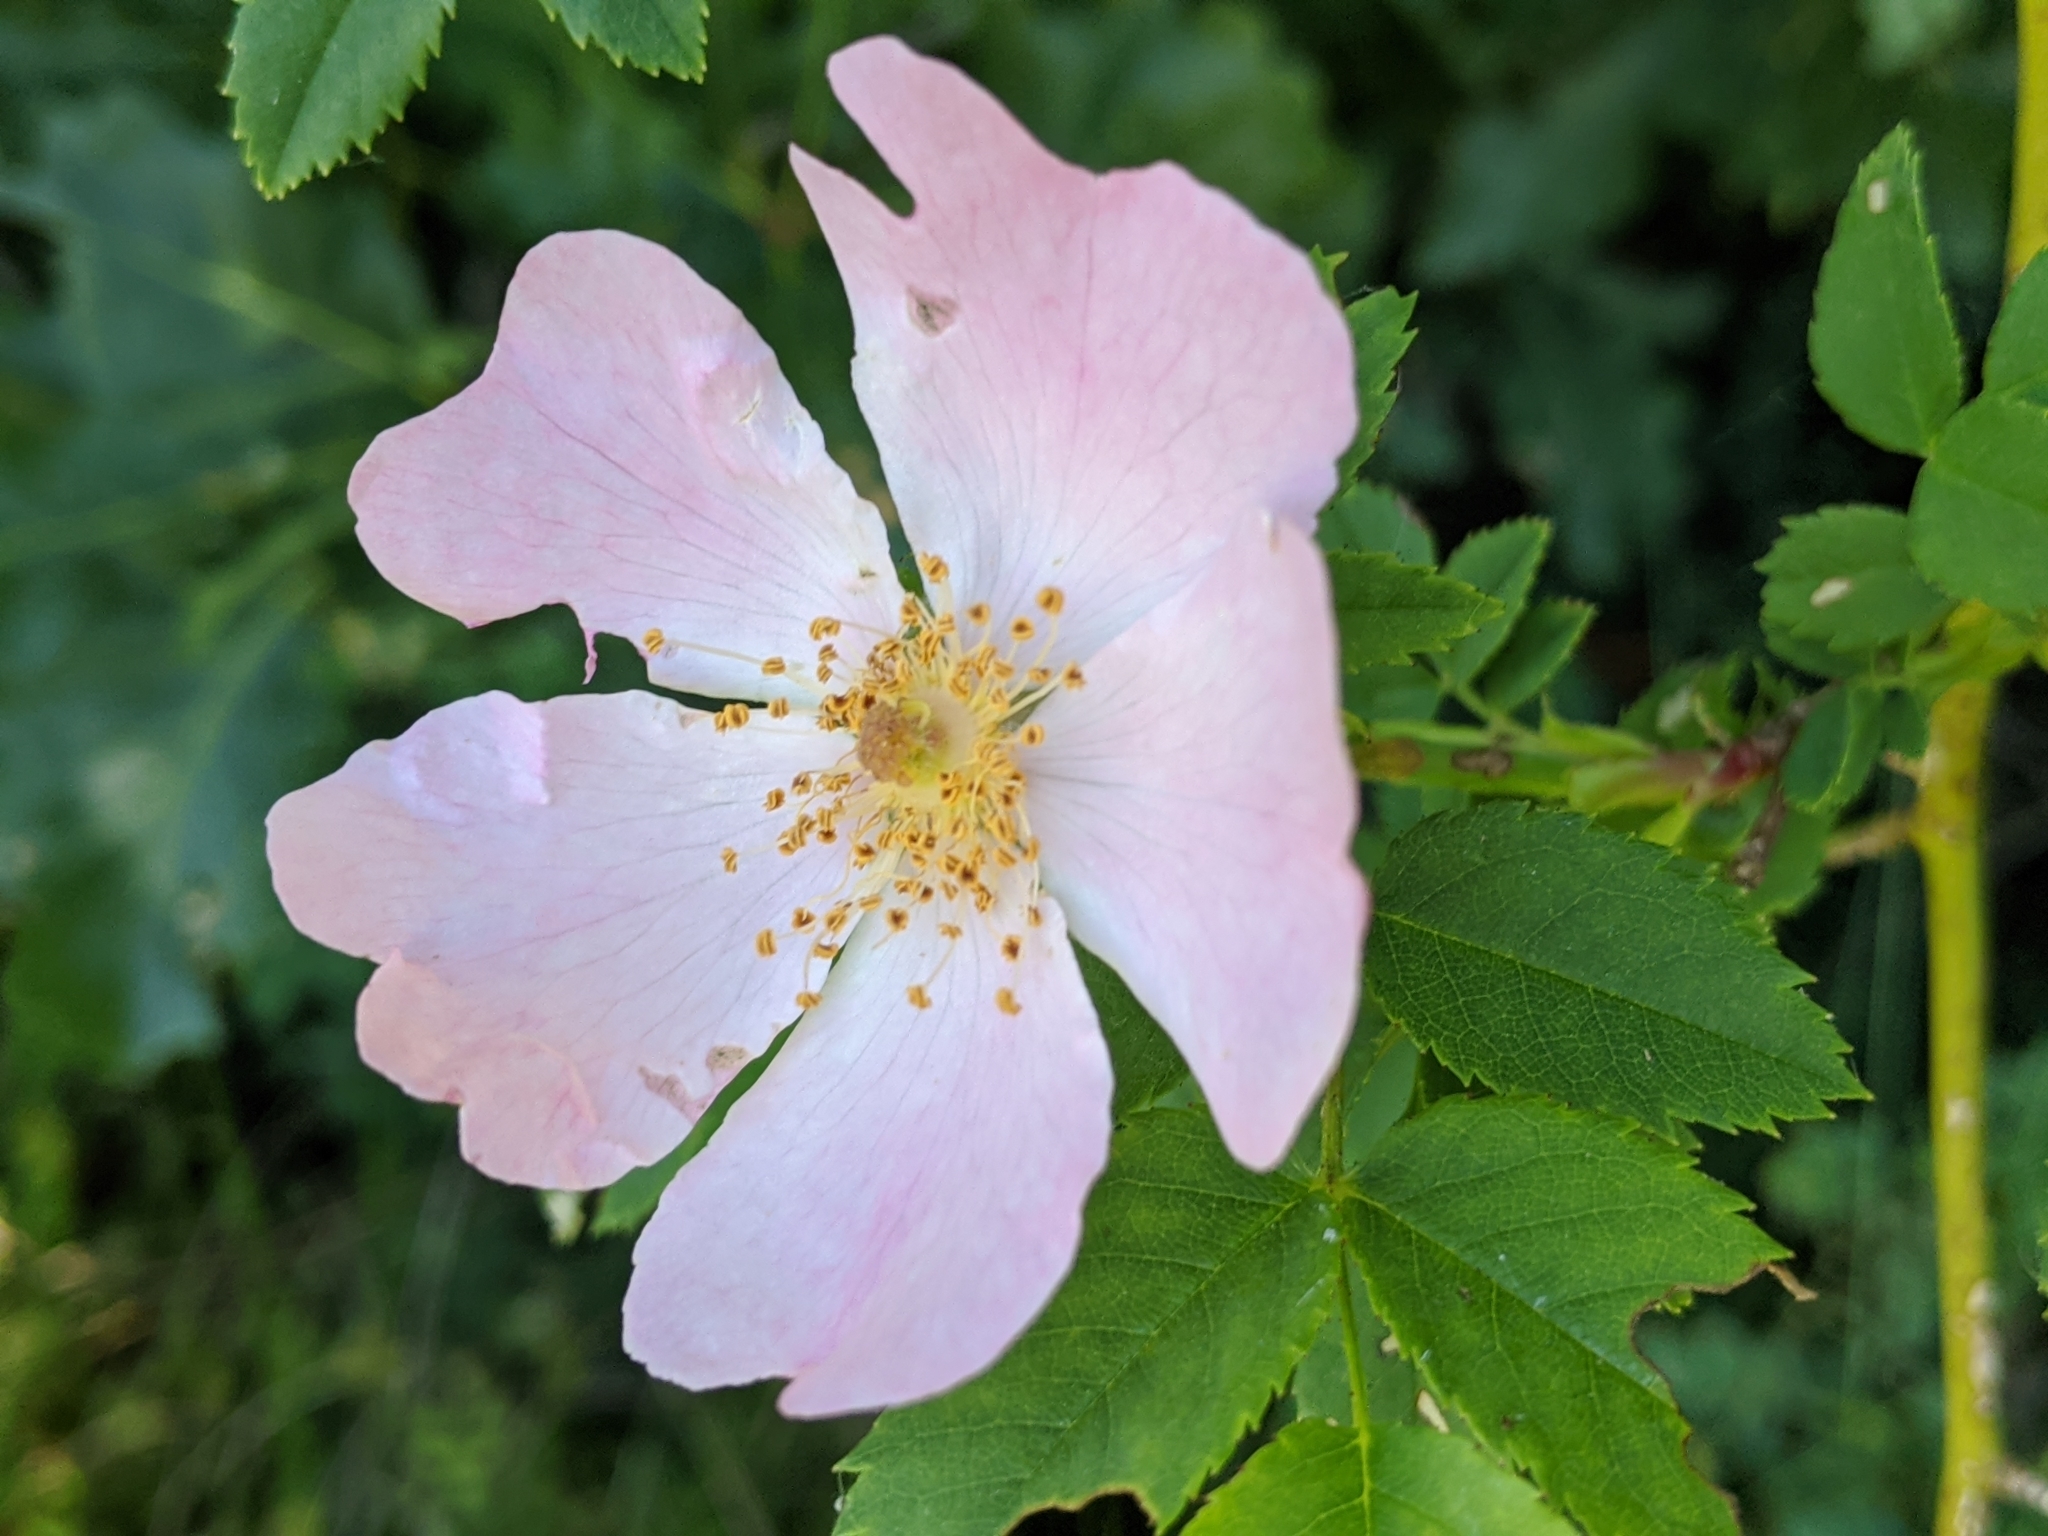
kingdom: Plantae
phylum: Tracheophyta
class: Magnoliopsida
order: Rosales
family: Rosaceae
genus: Rosa
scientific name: Rosa canina
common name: Dog rose
